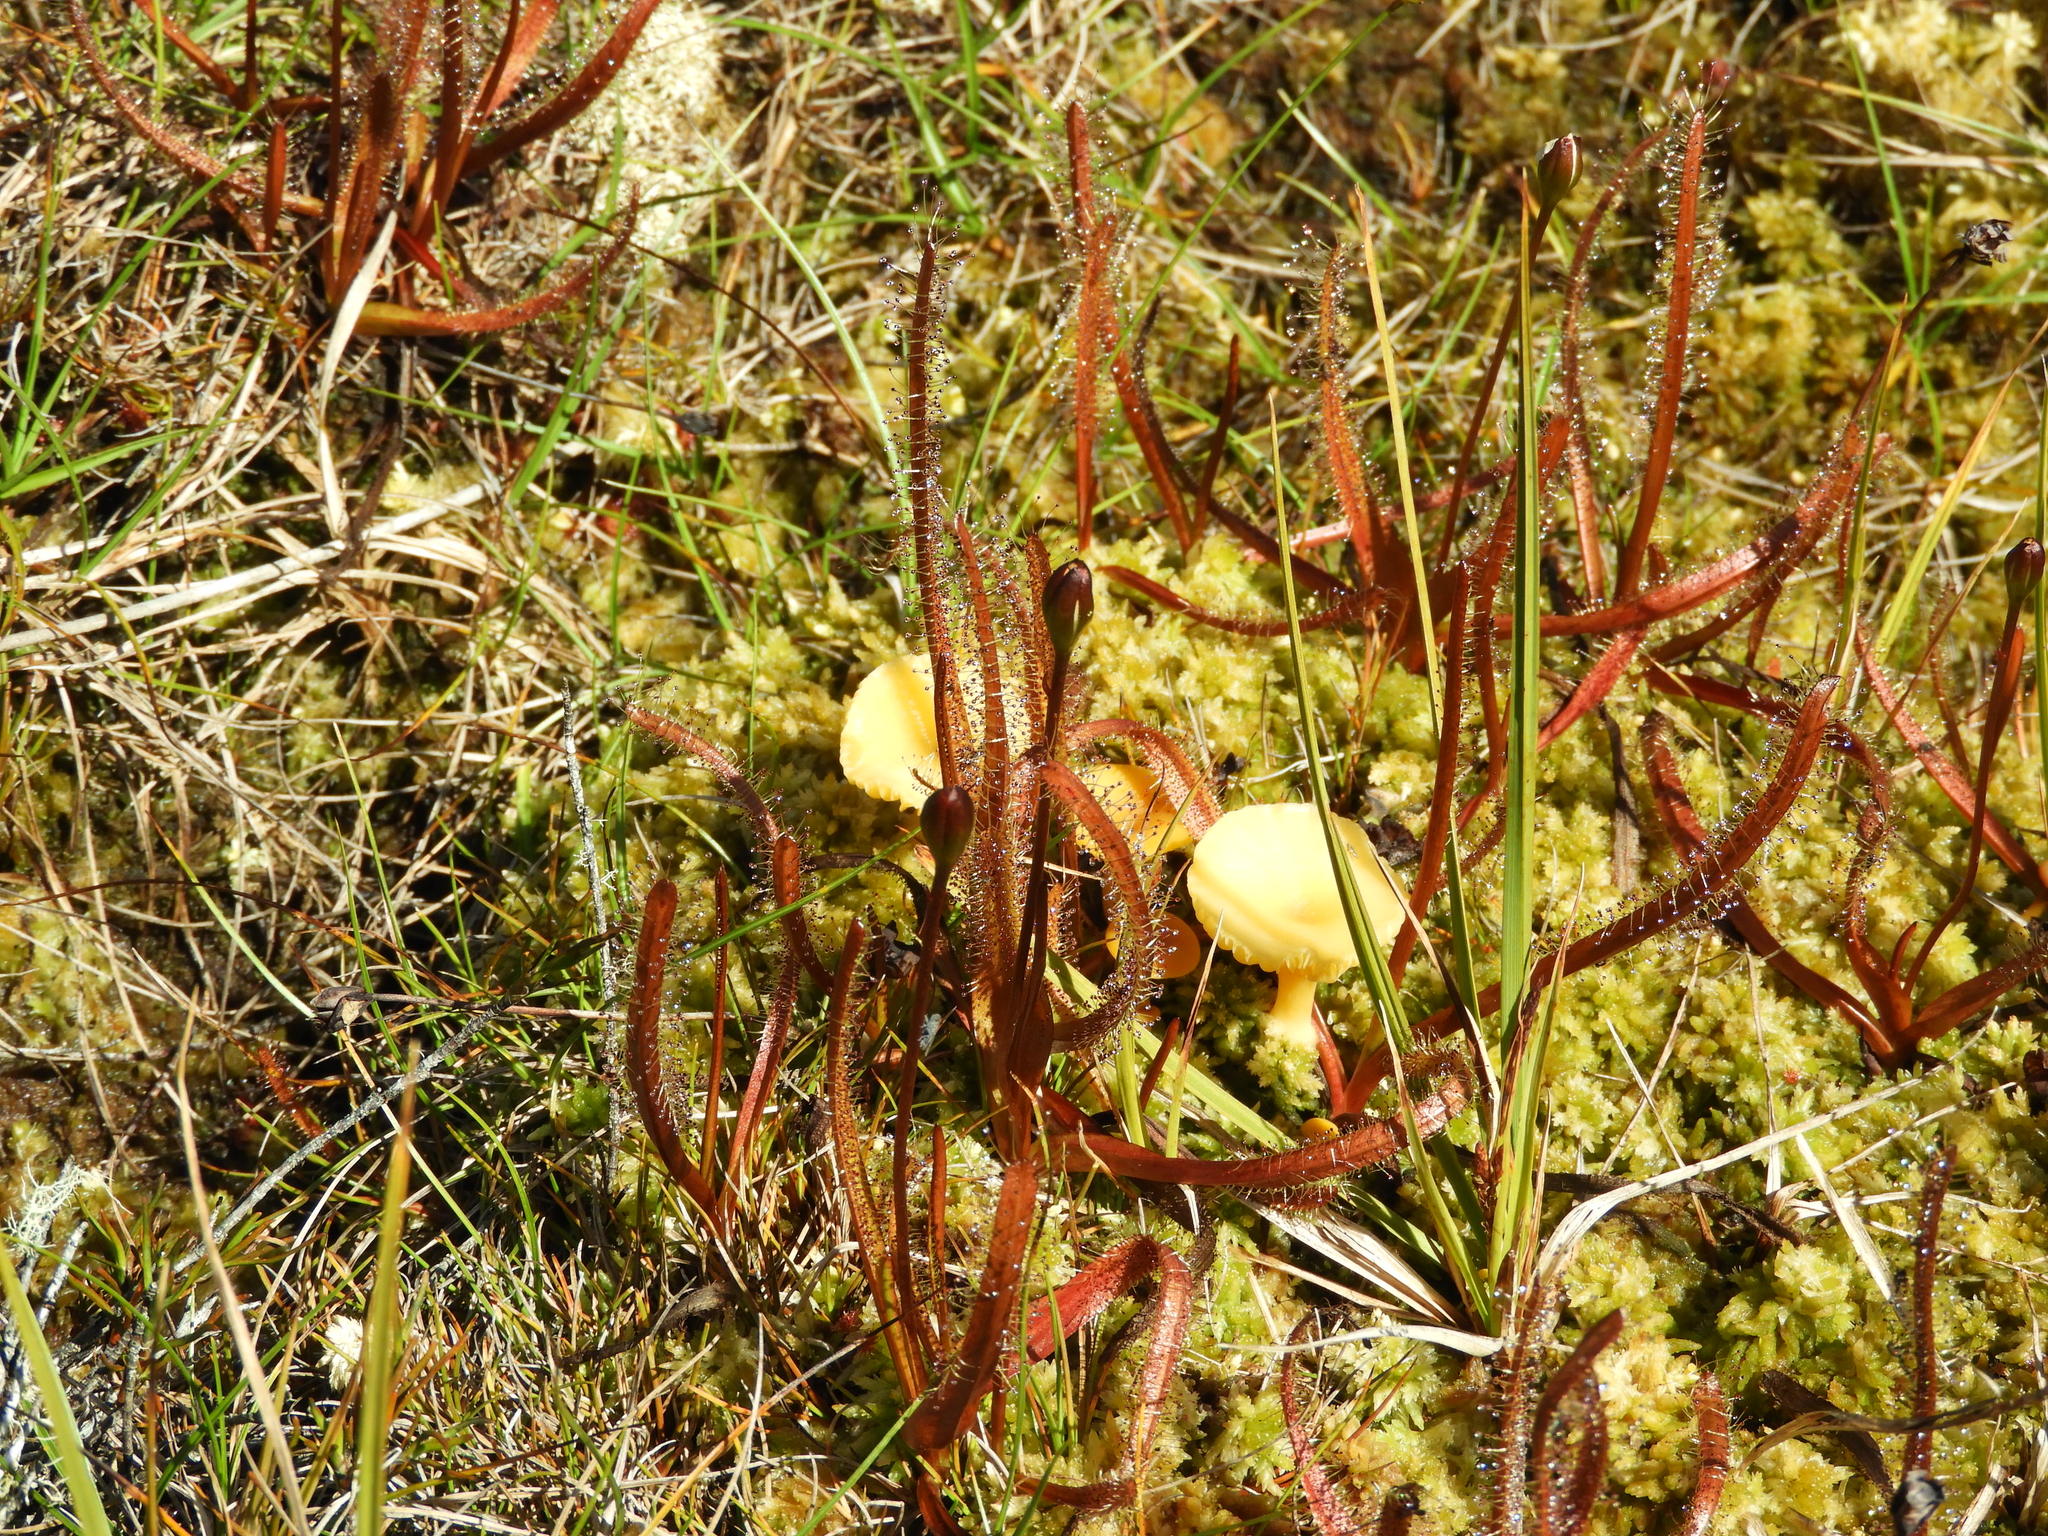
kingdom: Plantae
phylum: Tracheophyta
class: Magnoliopsida
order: Caryophyllales
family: Droseraceae
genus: Drosera
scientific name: Drosera arcturi
